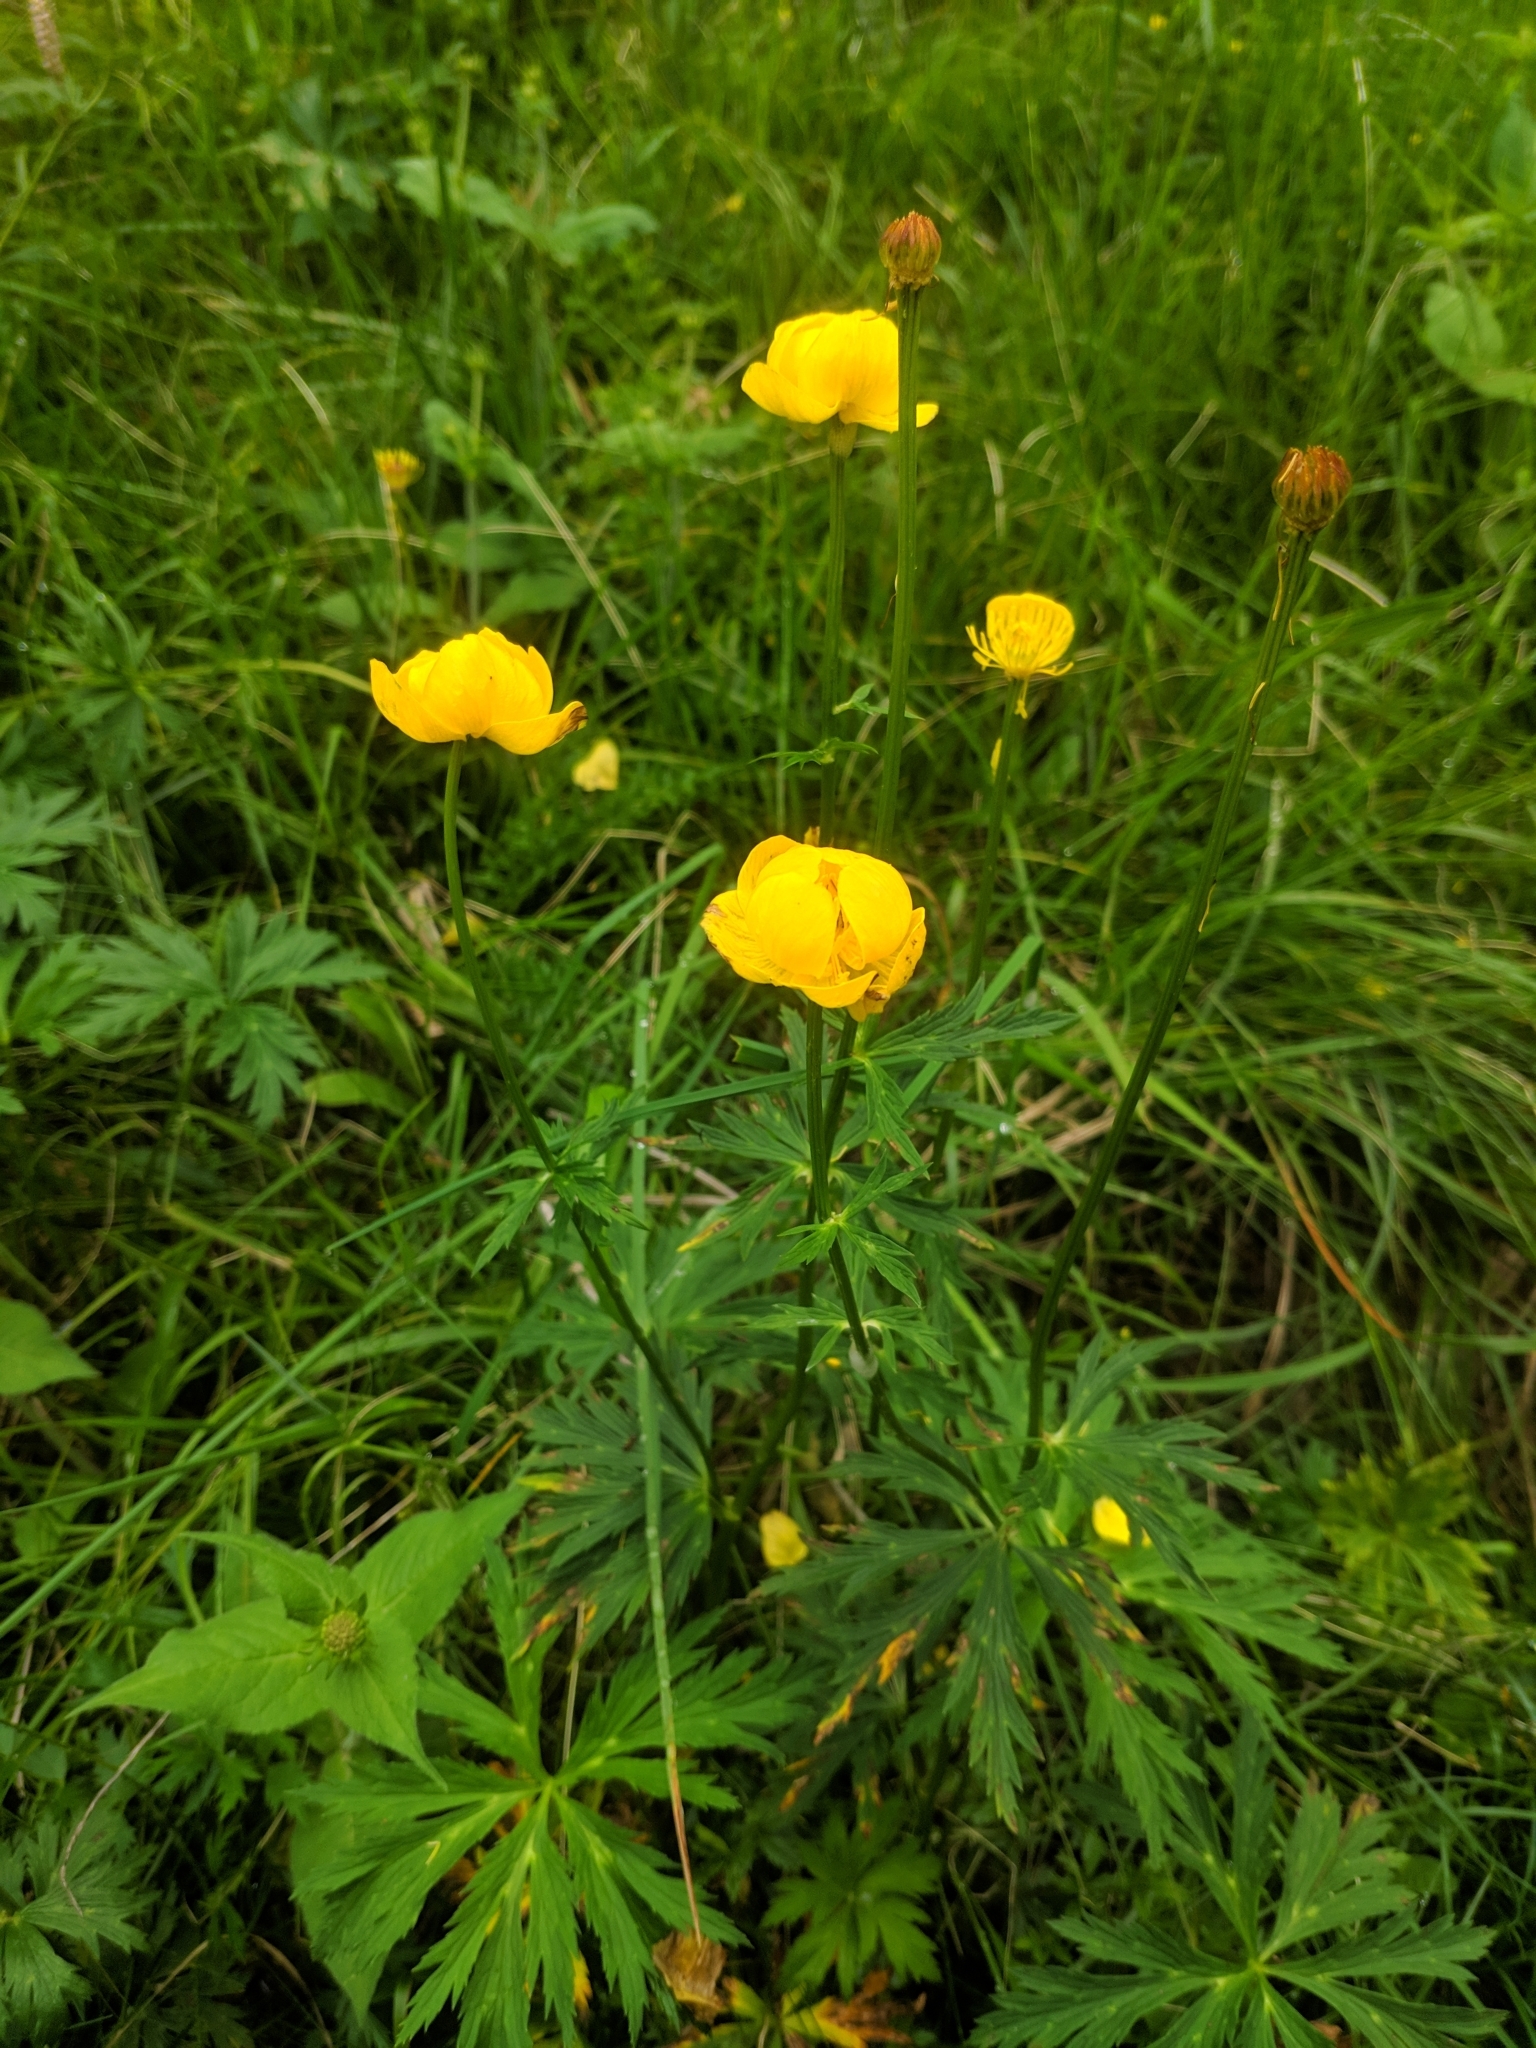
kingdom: Plantae
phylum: Tracheophyta
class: Magnoliopsida
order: Ranunculales
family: Ranunculaceae
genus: Trollius
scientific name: Trollius europaeus
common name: European globeflower
